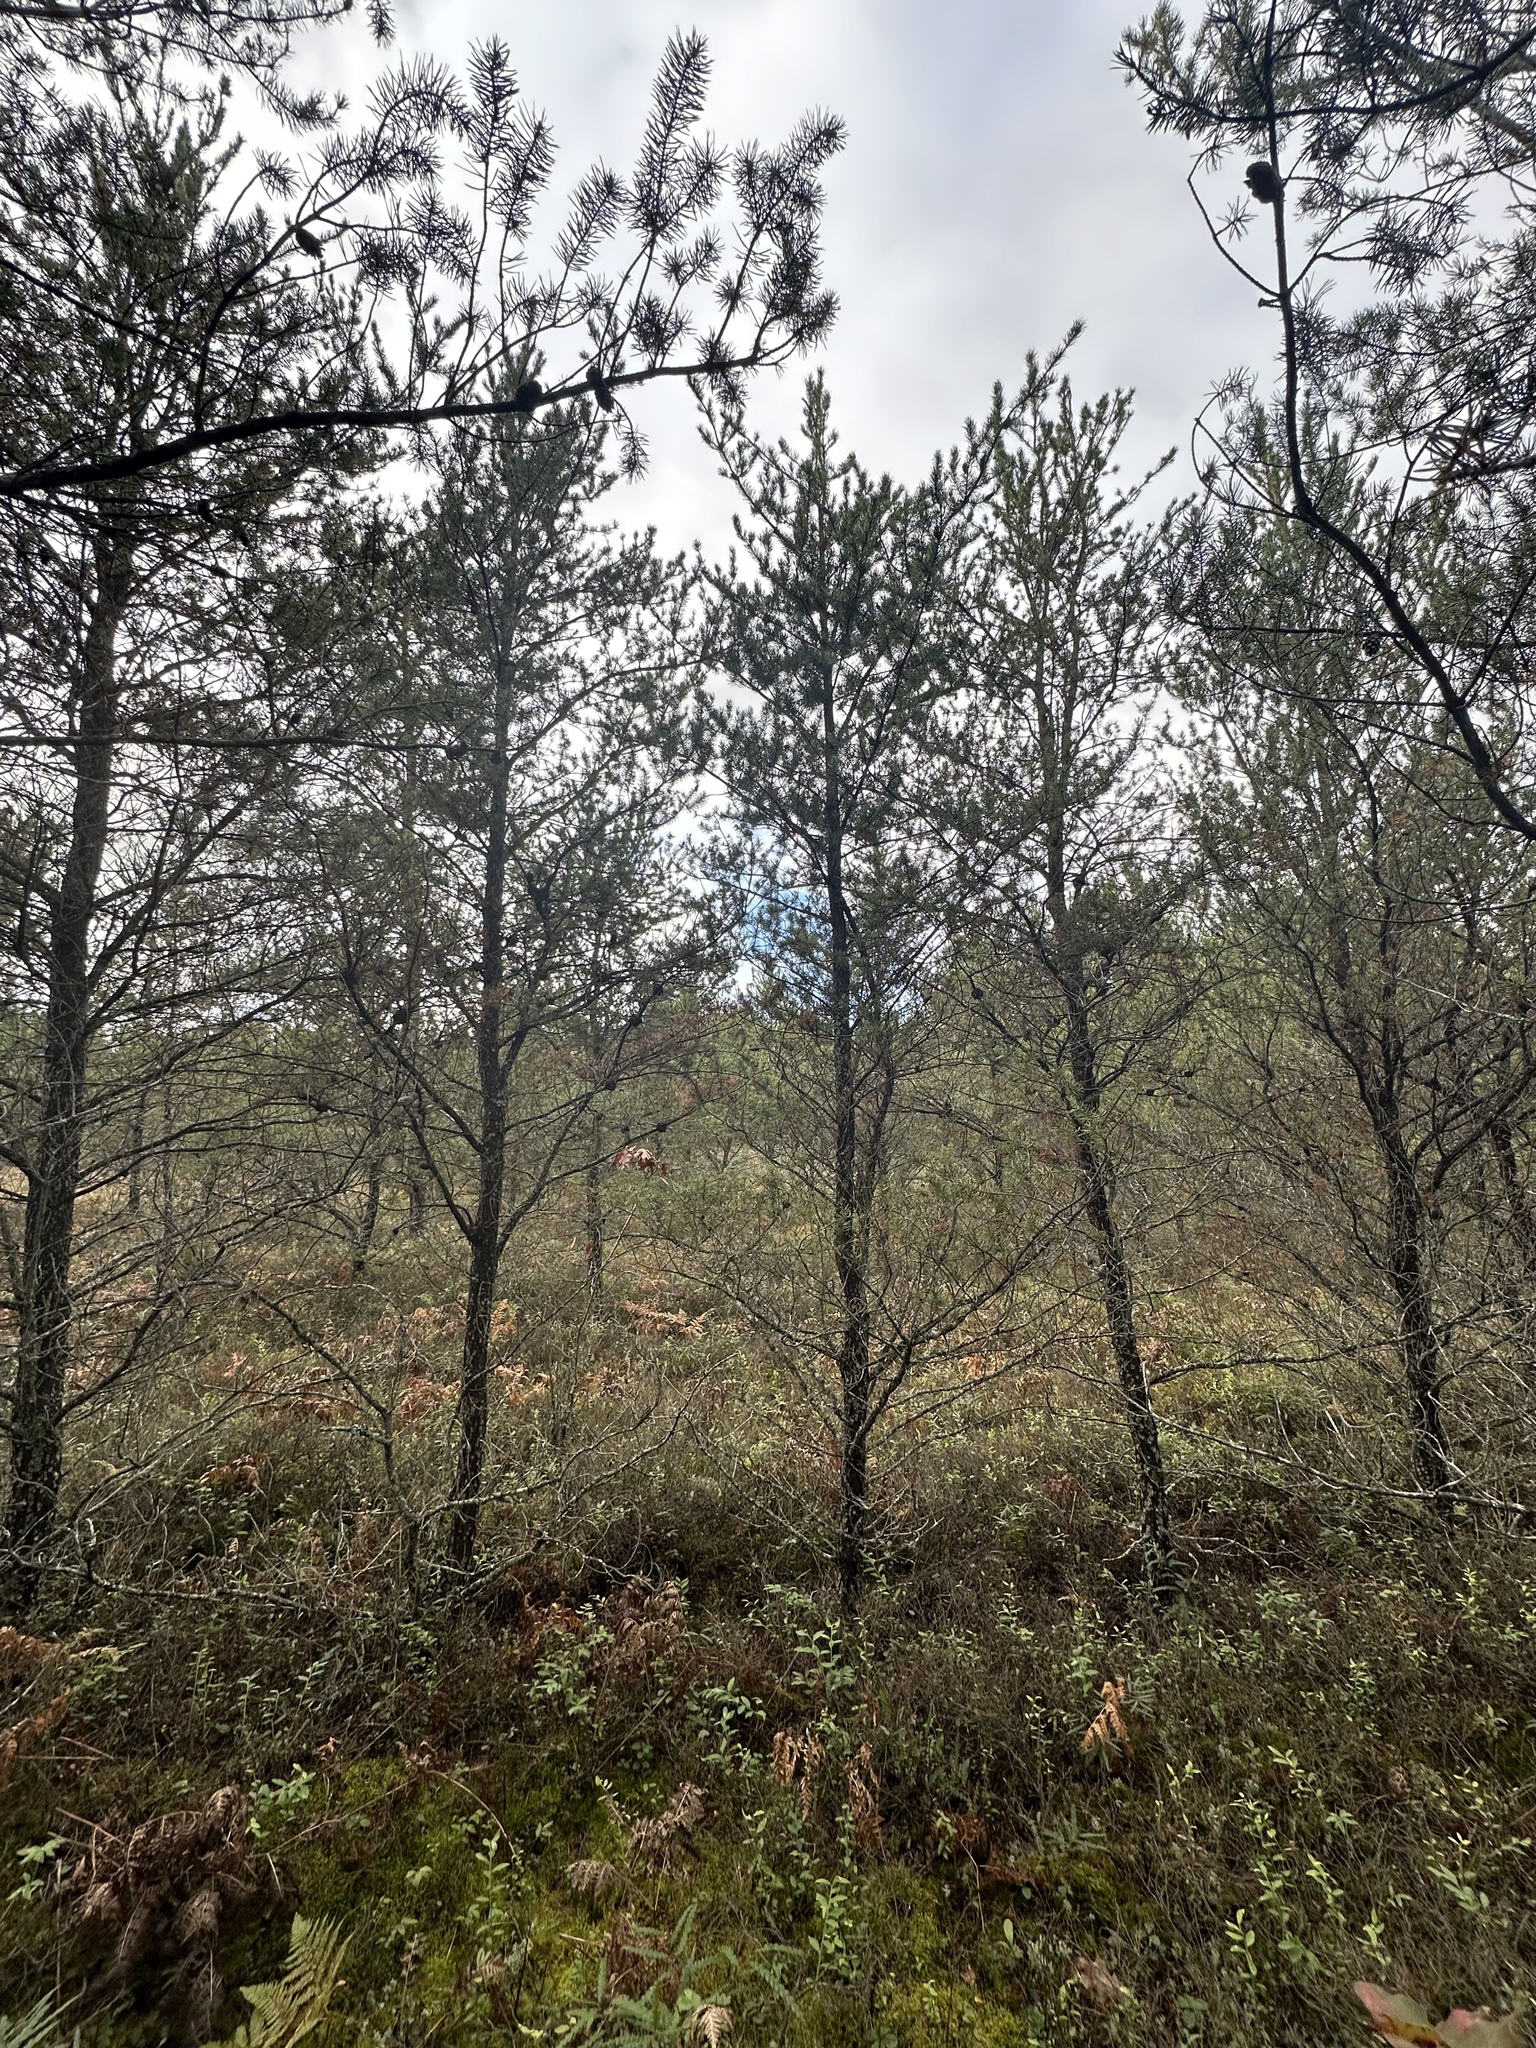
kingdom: Plantae
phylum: Tracheophyta
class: Pinopsida
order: Pinales
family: Pinaceae
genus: Pinus
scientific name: Pinus banksiana
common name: Jack pine
